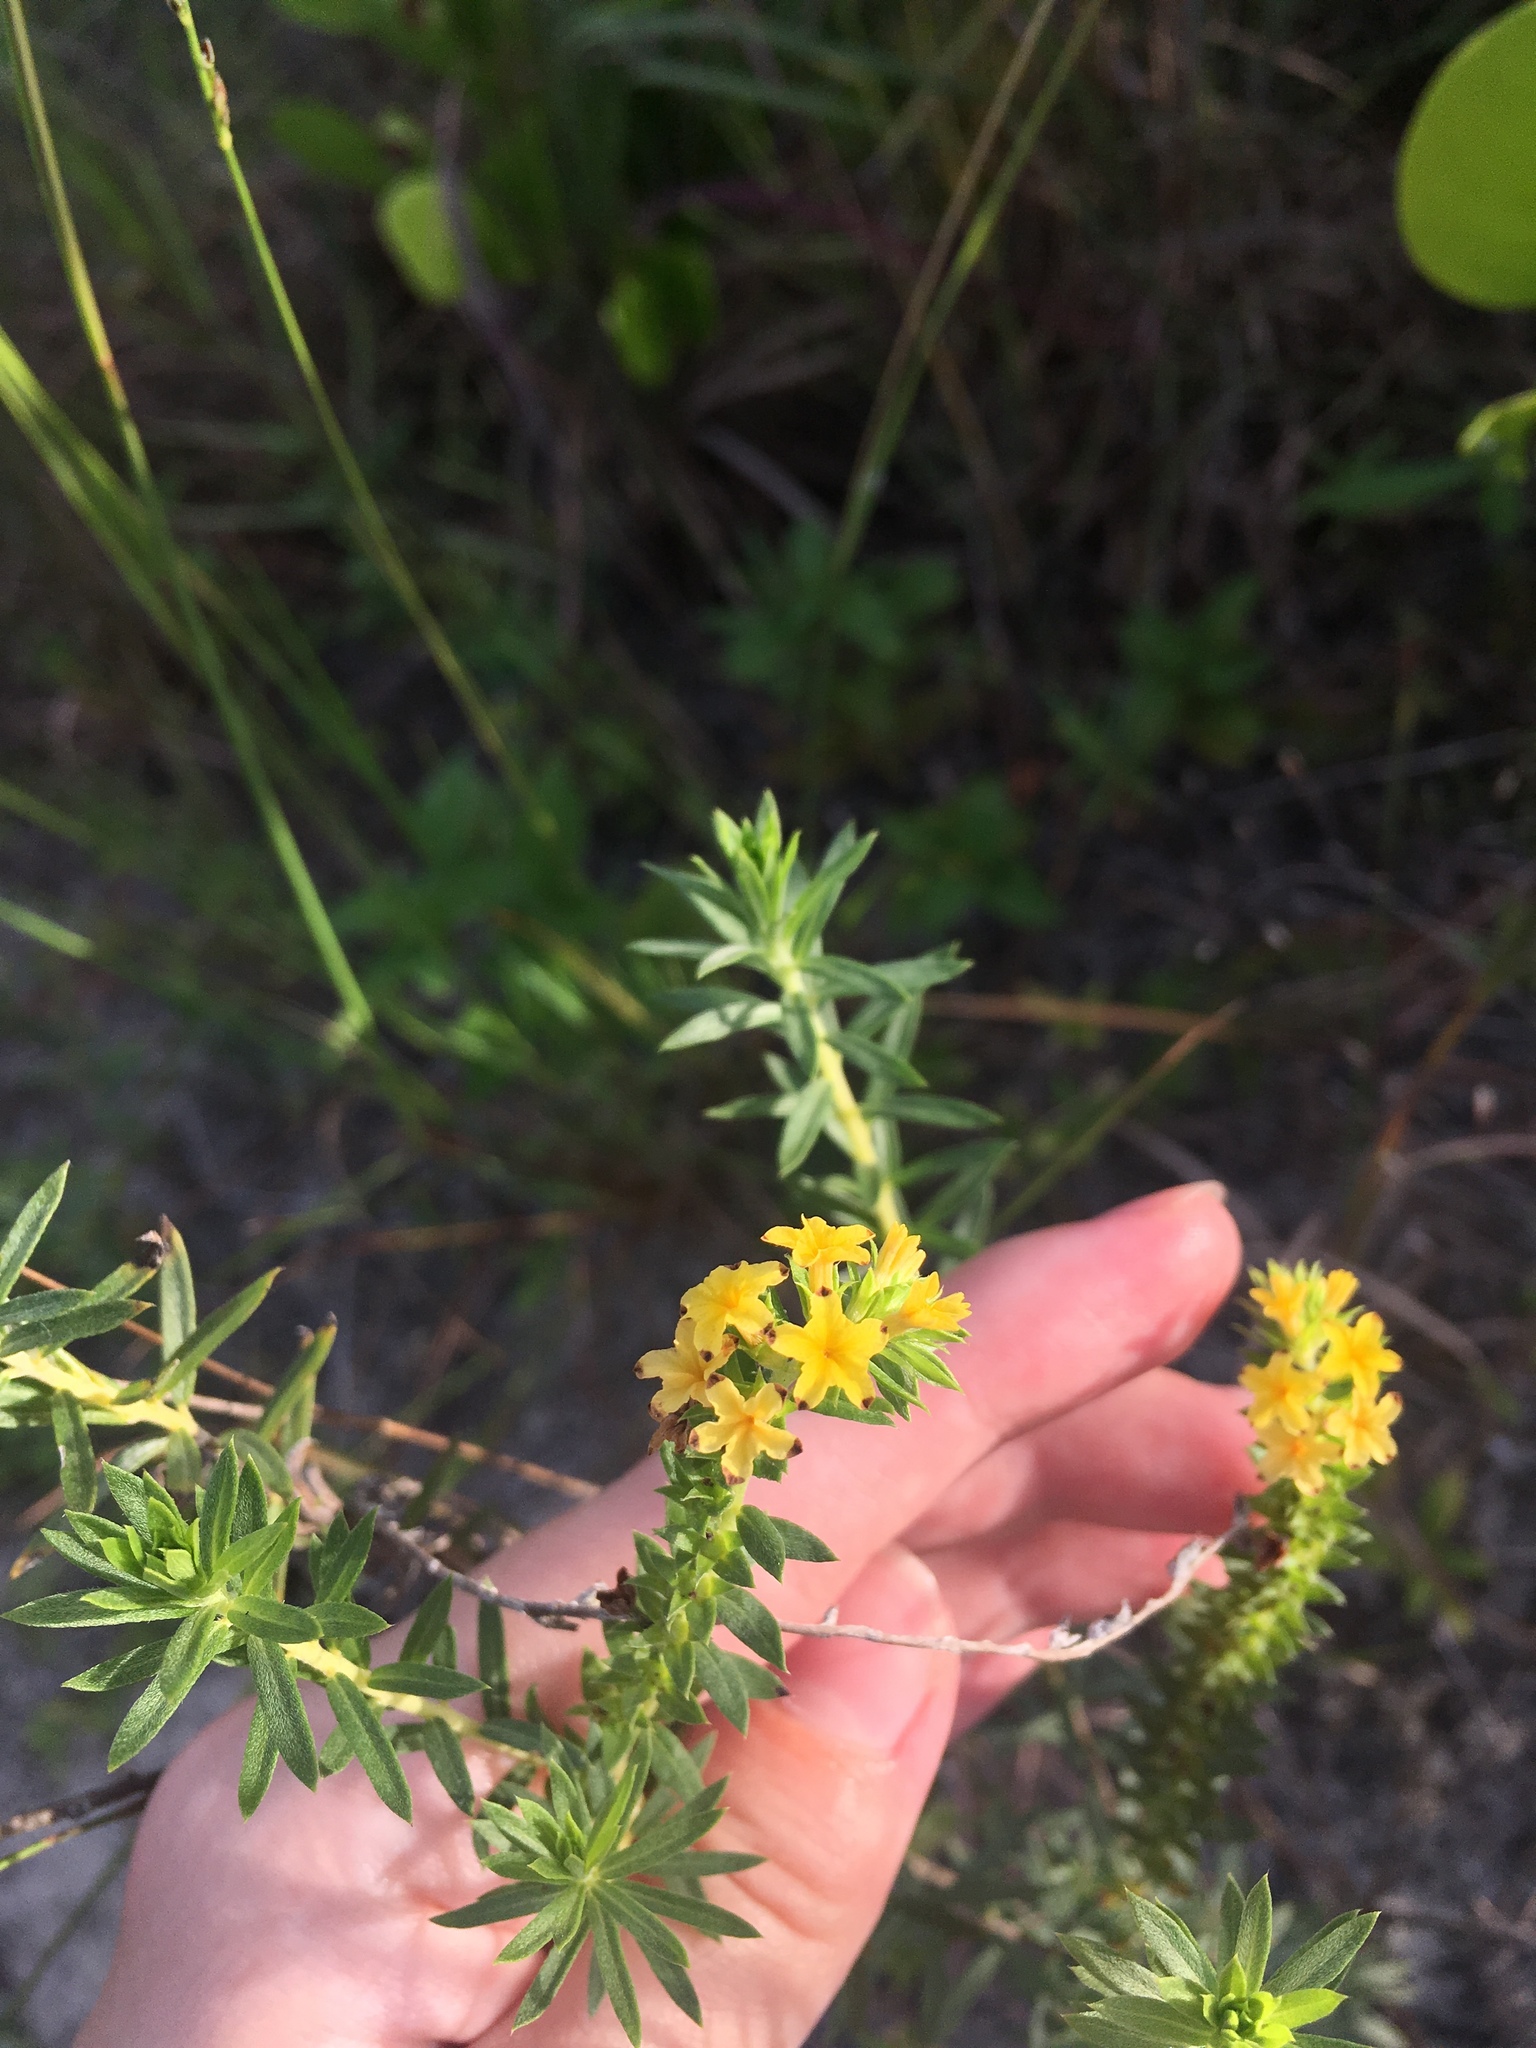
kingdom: Plantae
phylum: Tracheophyta
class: Magnoliopsida
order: Boraginales
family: Heliotropiaceae
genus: Euploca
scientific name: Euploca polyphylla
